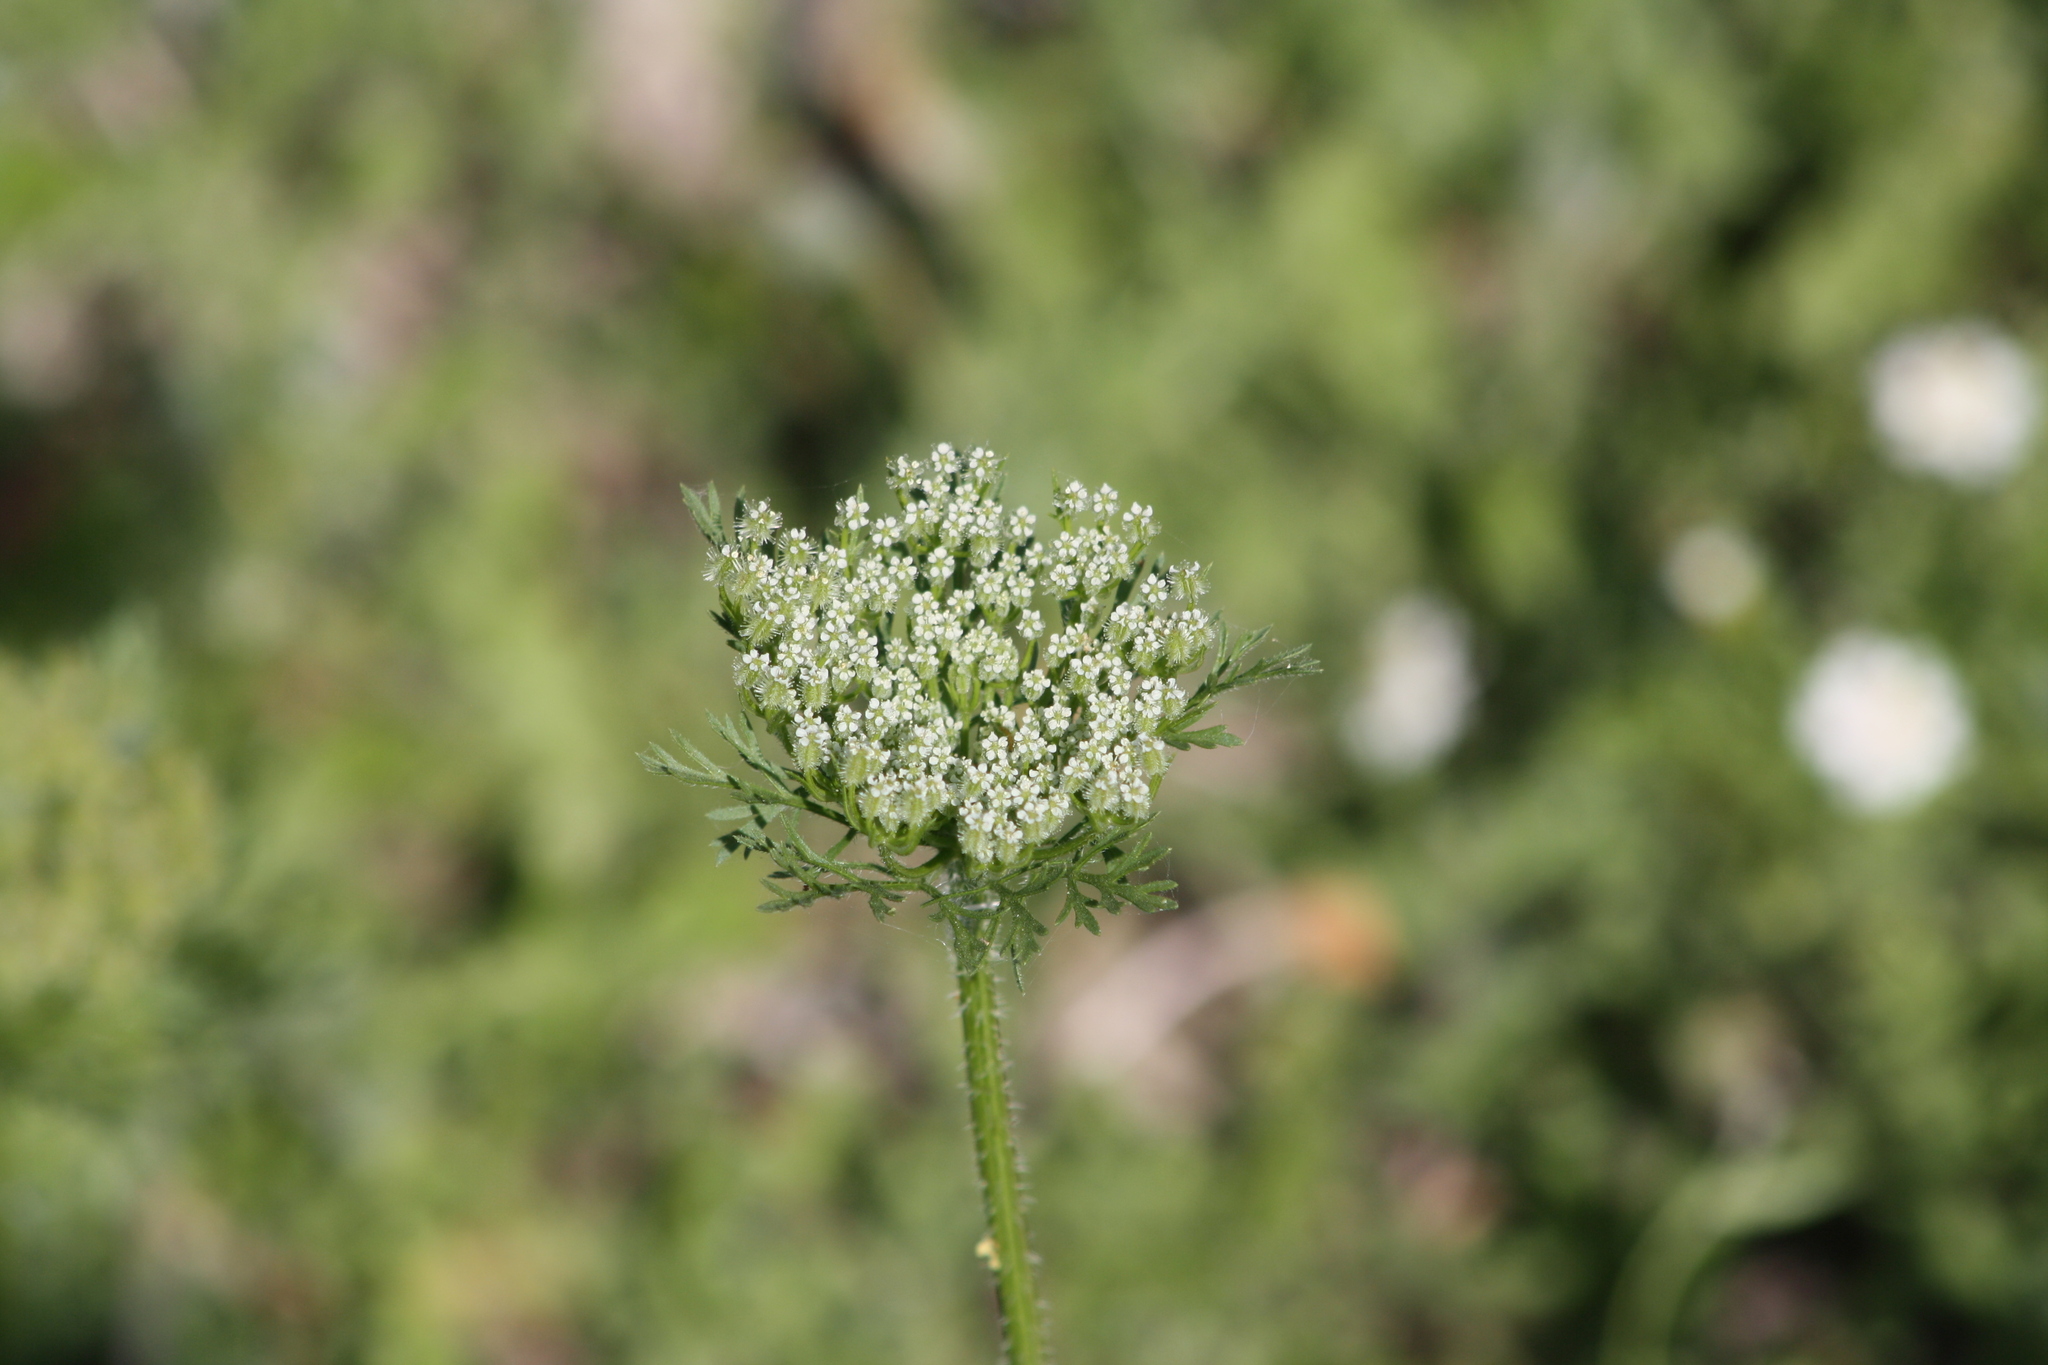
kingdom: Plantae
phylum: Tracheophyta
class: Magnoliopsida
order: Apiales
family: Apiaceae
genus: Daucus
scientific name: Daucus pusillus
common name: Southwest wild carrot
